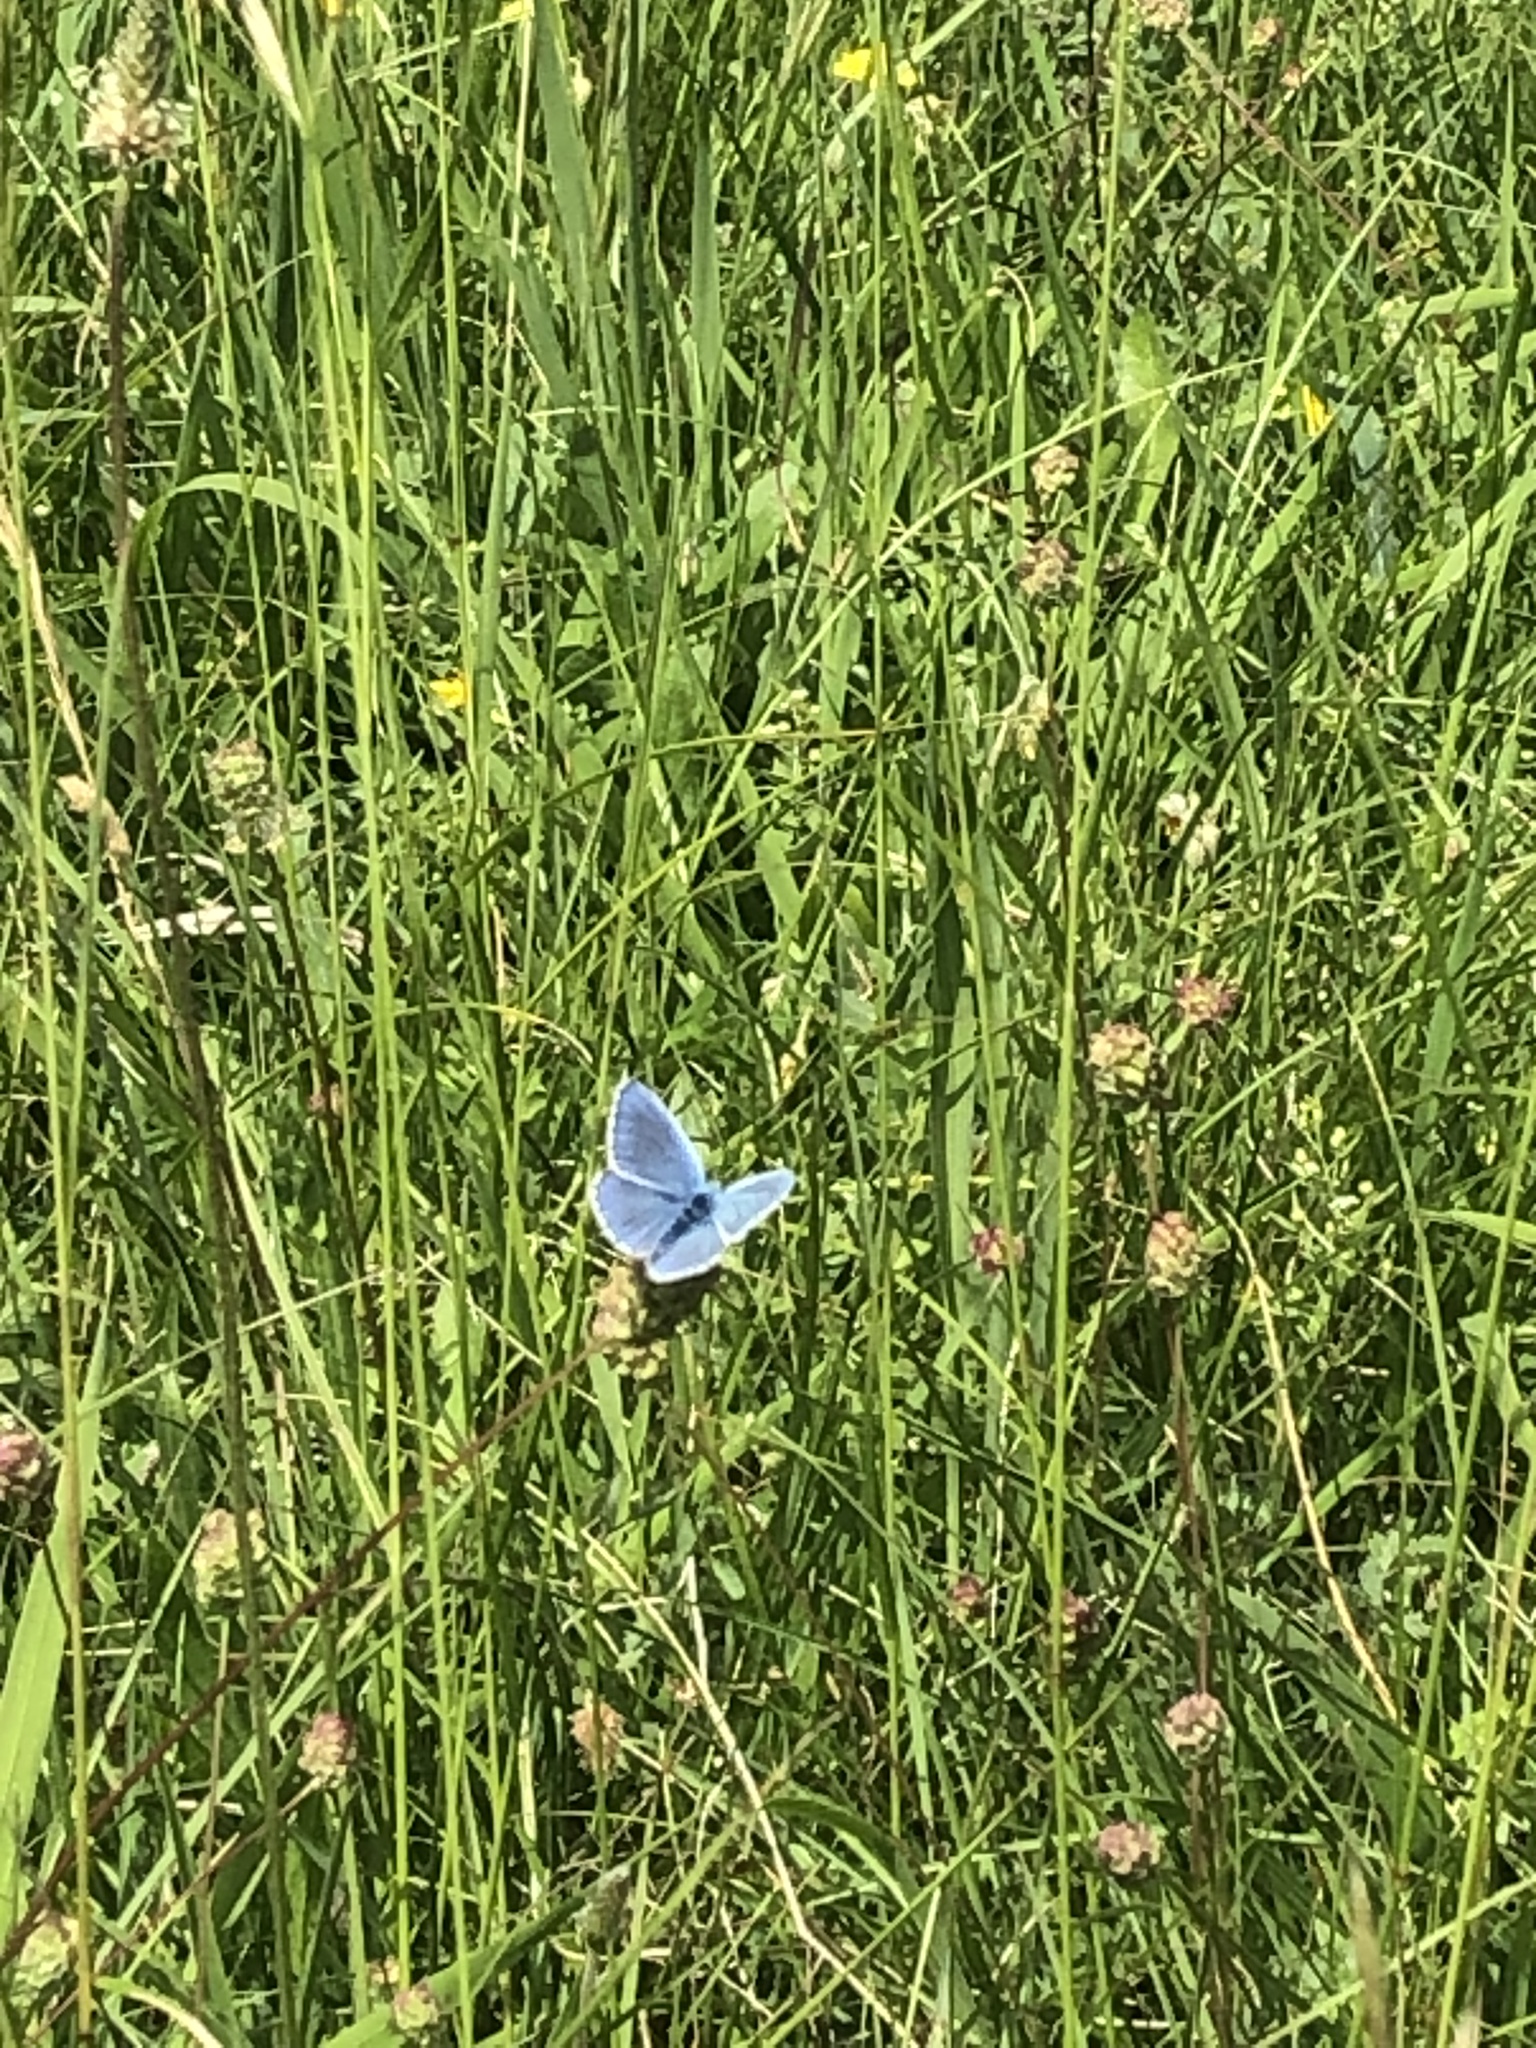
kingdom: Animalia
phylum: Arthropoda
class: Insecta
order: Lepidoptera
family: Lycaenidae
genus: Lysandra
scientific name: Lysandra bellargus
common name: Adonis blue
